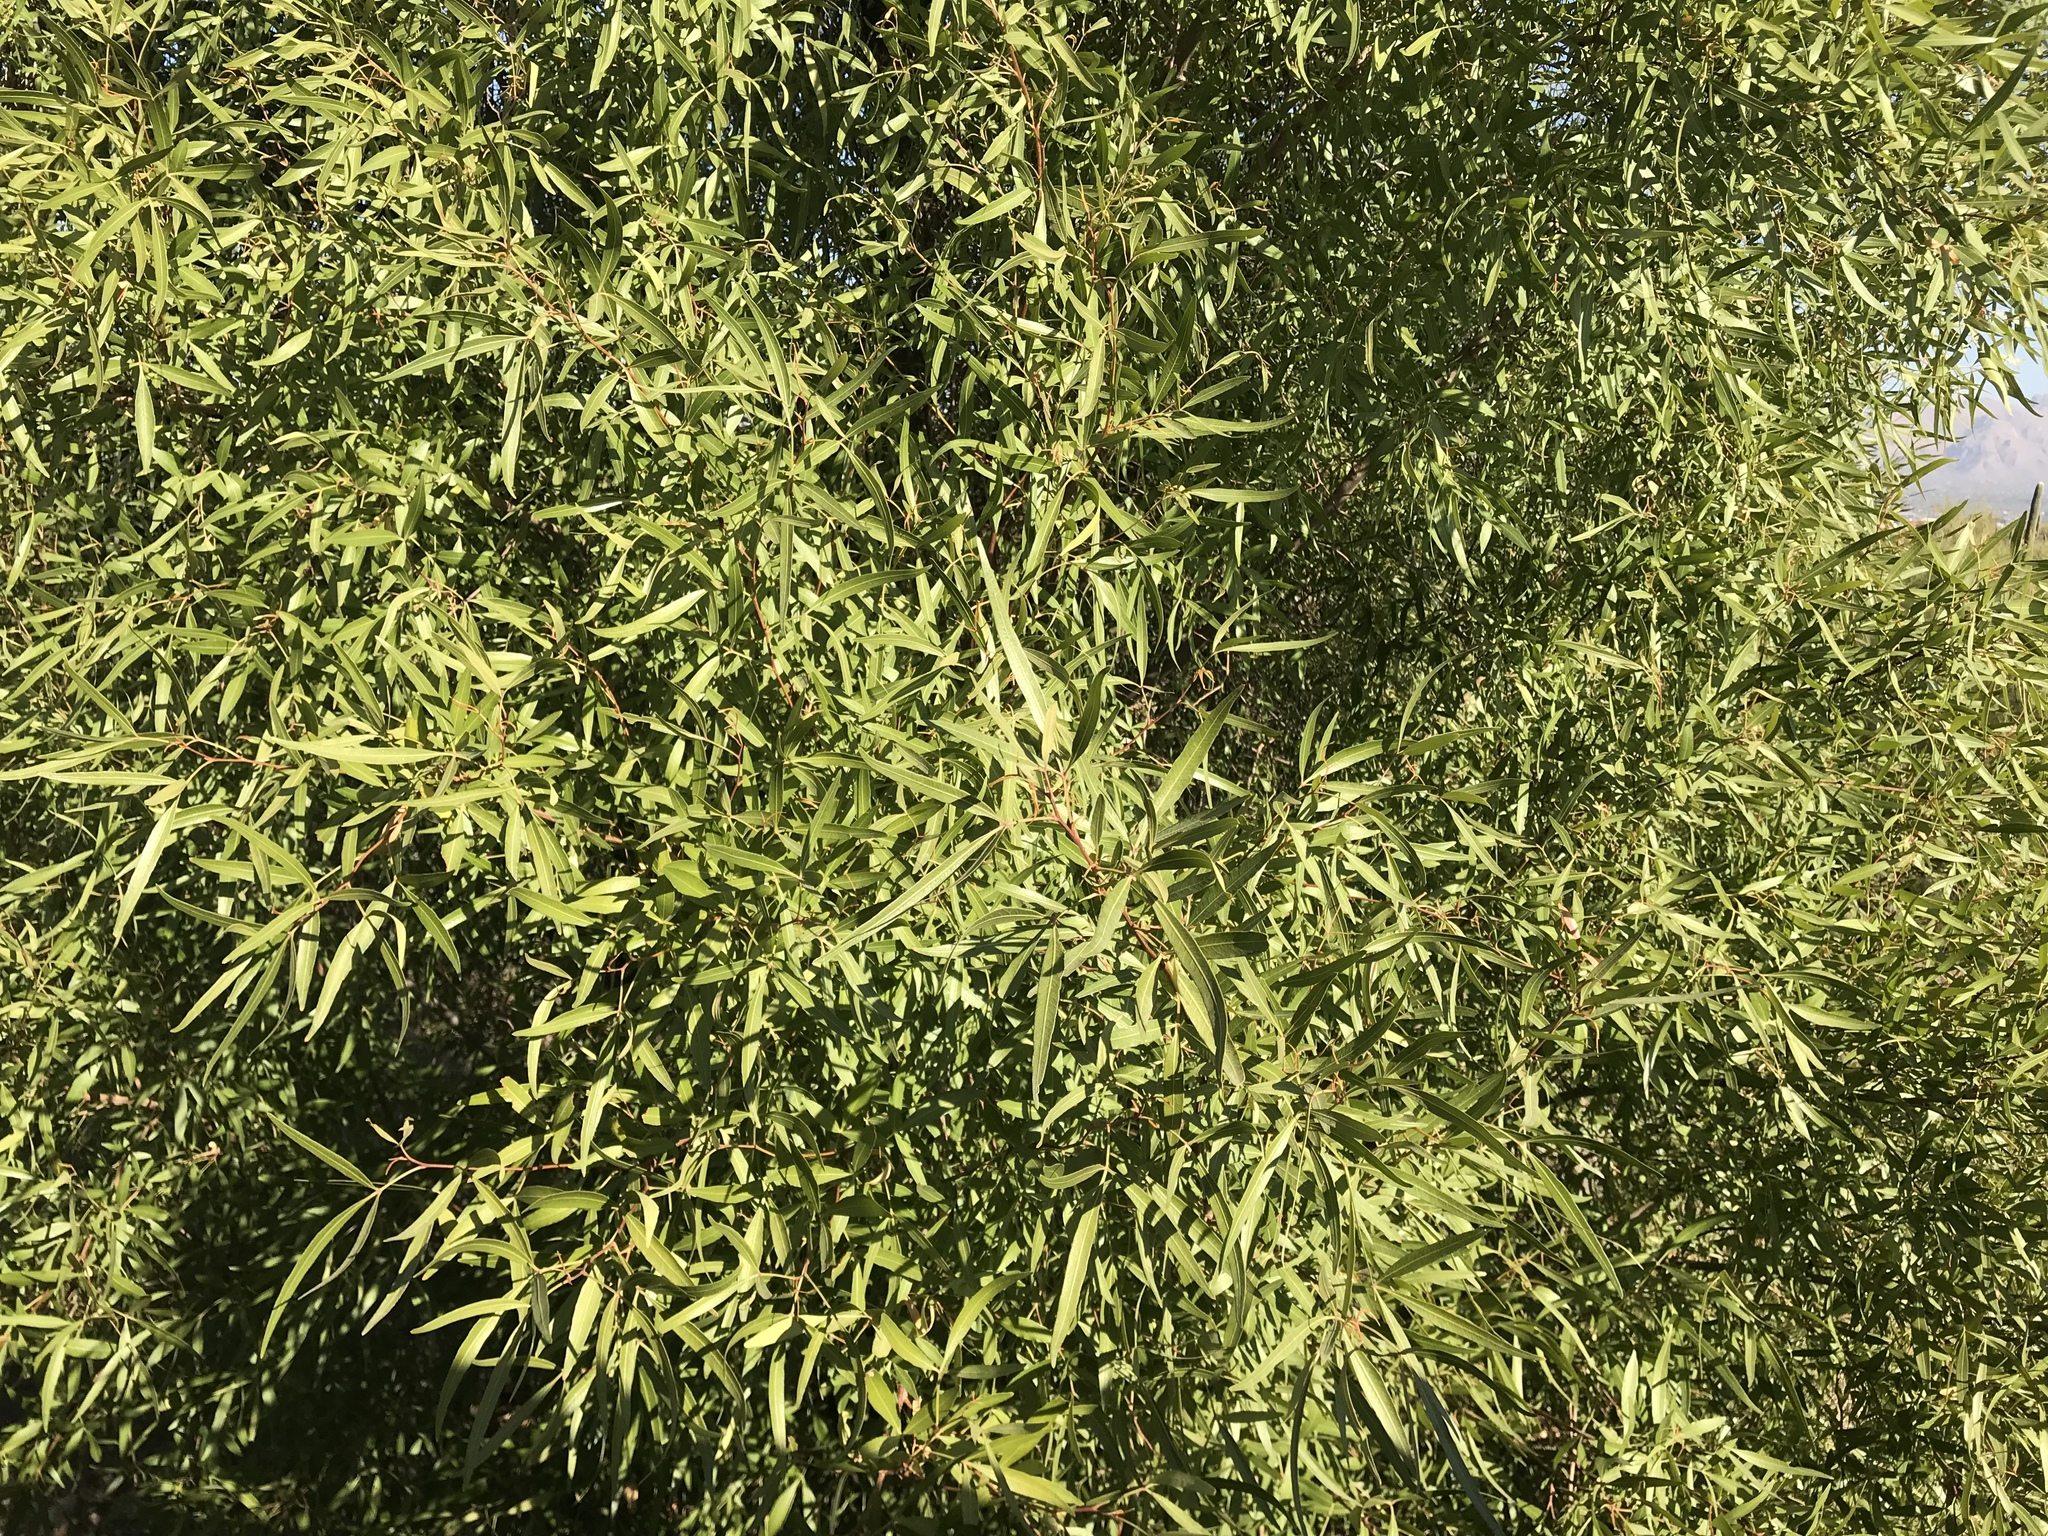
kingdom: Plantae
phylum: Tracheophyta
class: Magnoliopsida
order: Sapindales
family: Anacardiaceae
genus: Searsia
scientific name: Searsia lancea
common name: Cashew
